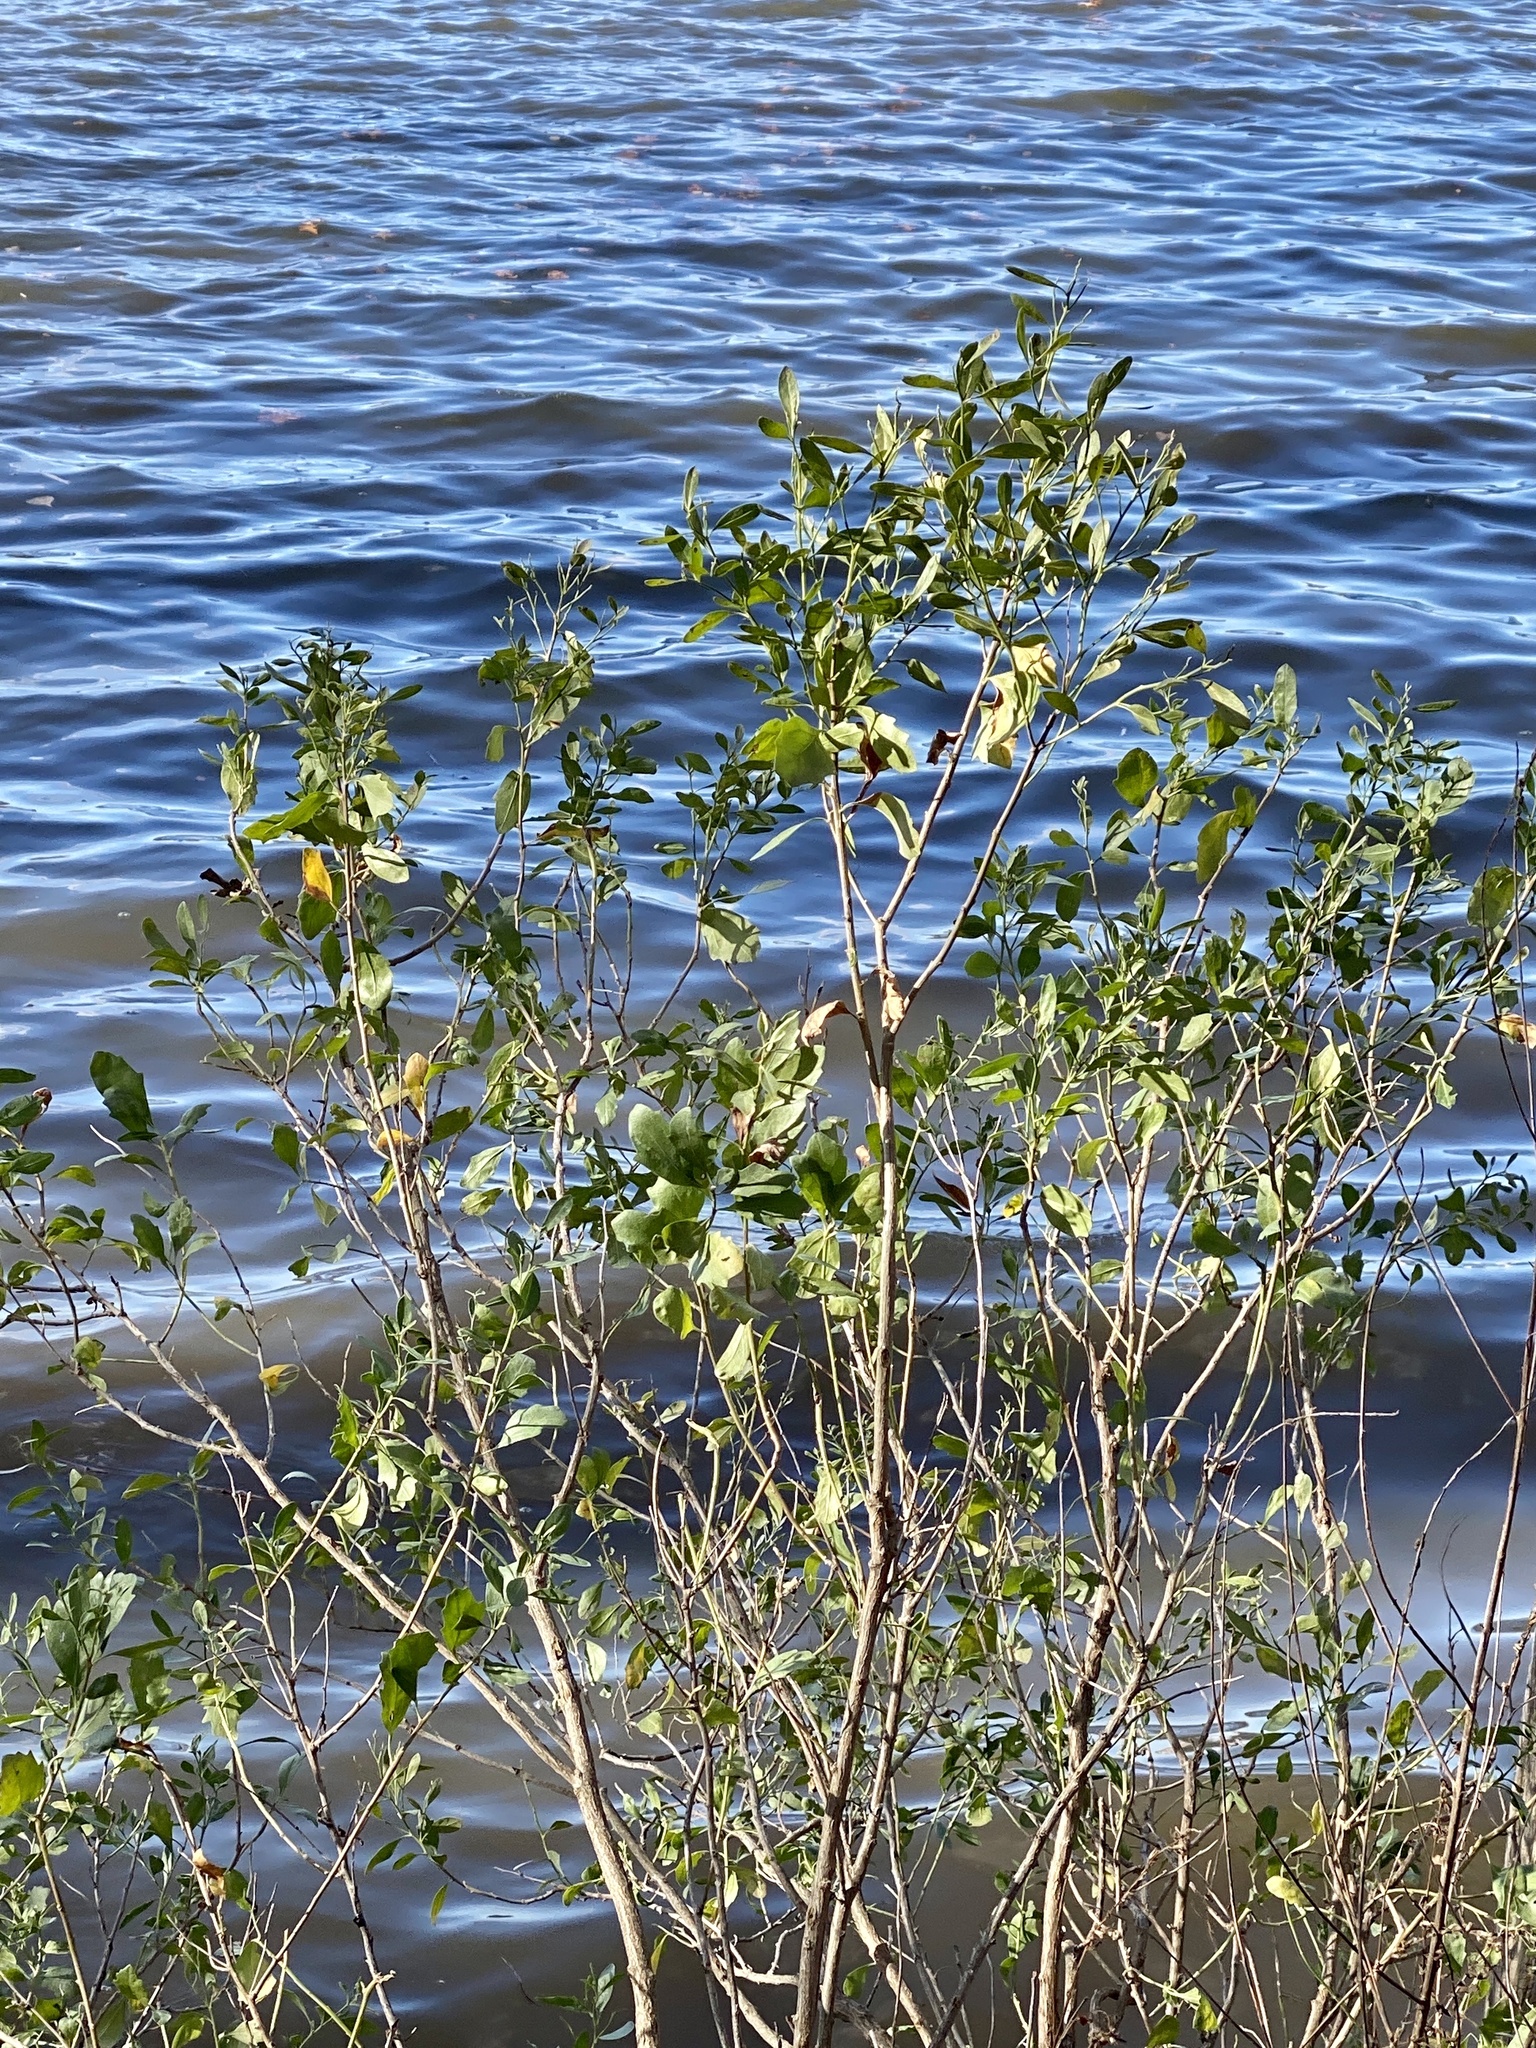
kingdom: Plantae
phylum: Tracheophyta
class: Magnoliopsida
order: Asterales
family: Asteraceae
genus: Baccharis
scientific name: Baccharis halimifolia
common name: Eastern baccharis
